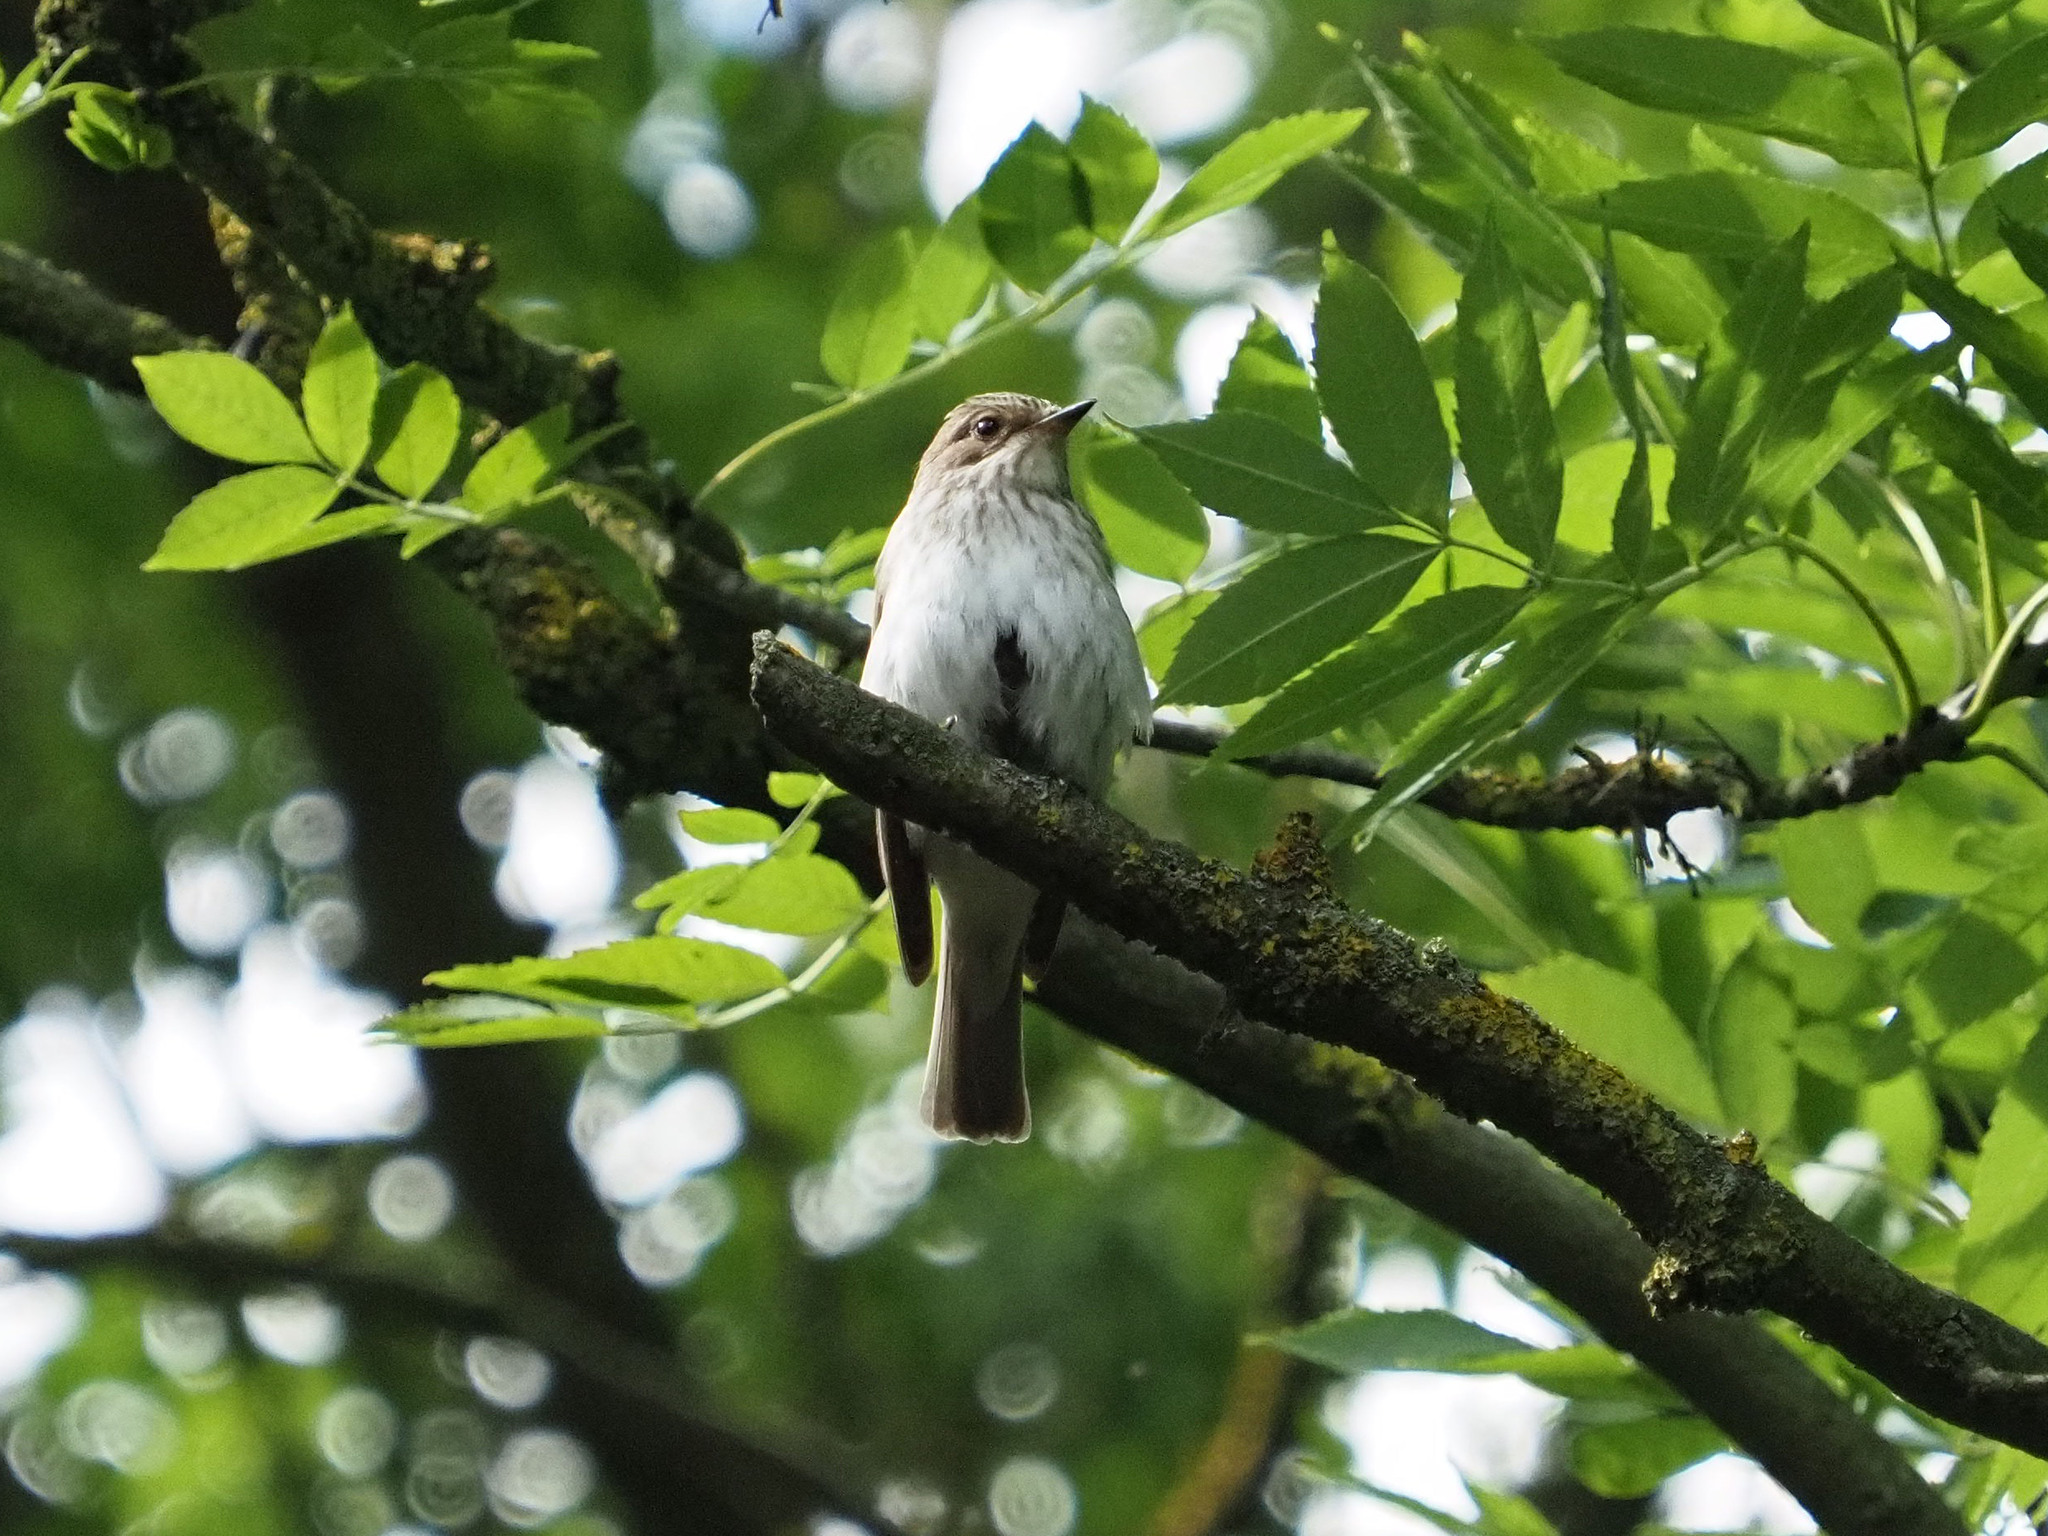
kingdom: Animalia
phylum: Chordata
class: Aves
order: Passeriformes
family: Muscicapidae
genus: Muscicapa
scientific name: Muscicapa striata
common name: Spotted flycatcher
